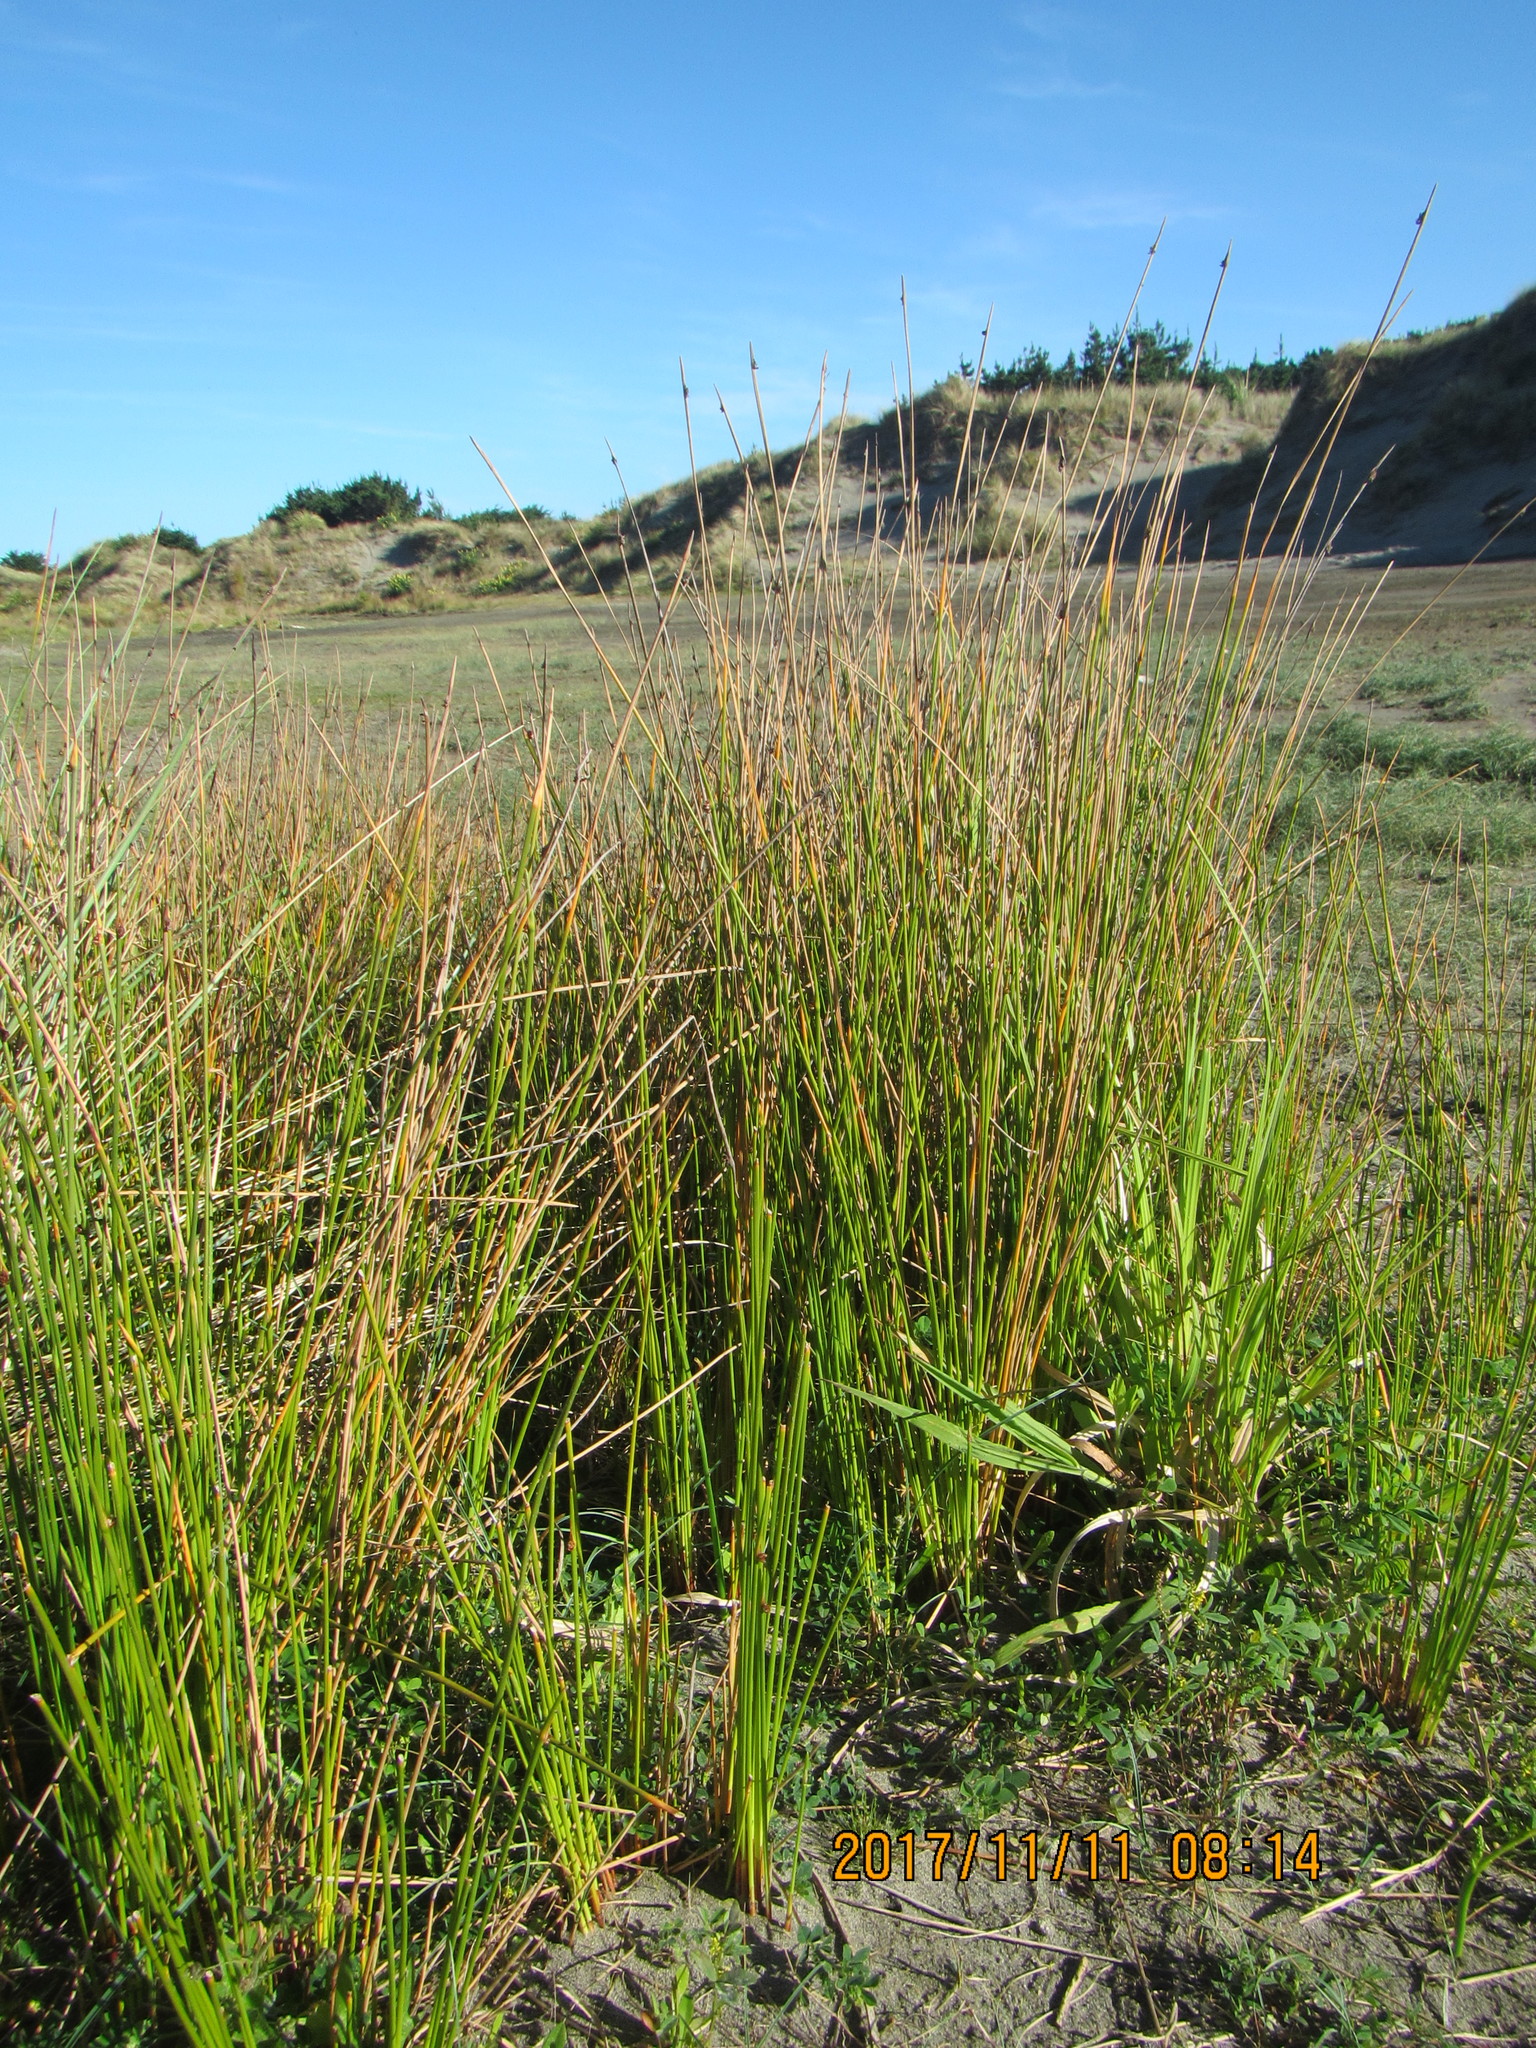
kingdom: Plantae
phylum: Tracheophyta
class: Liliopsida
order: Poales
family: Cyperaceae
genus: Ficinia
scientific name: Ficinia nodosa
